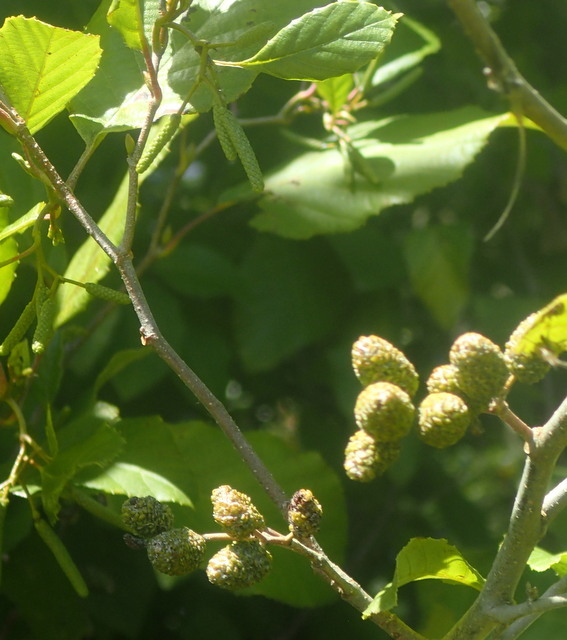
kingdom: Plantae
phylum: Tracheophyta
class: Magnoliopsida
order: Fagales
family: Betulaceae
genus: Alnus
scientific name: Alnus serrulata
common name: Hazel alder
